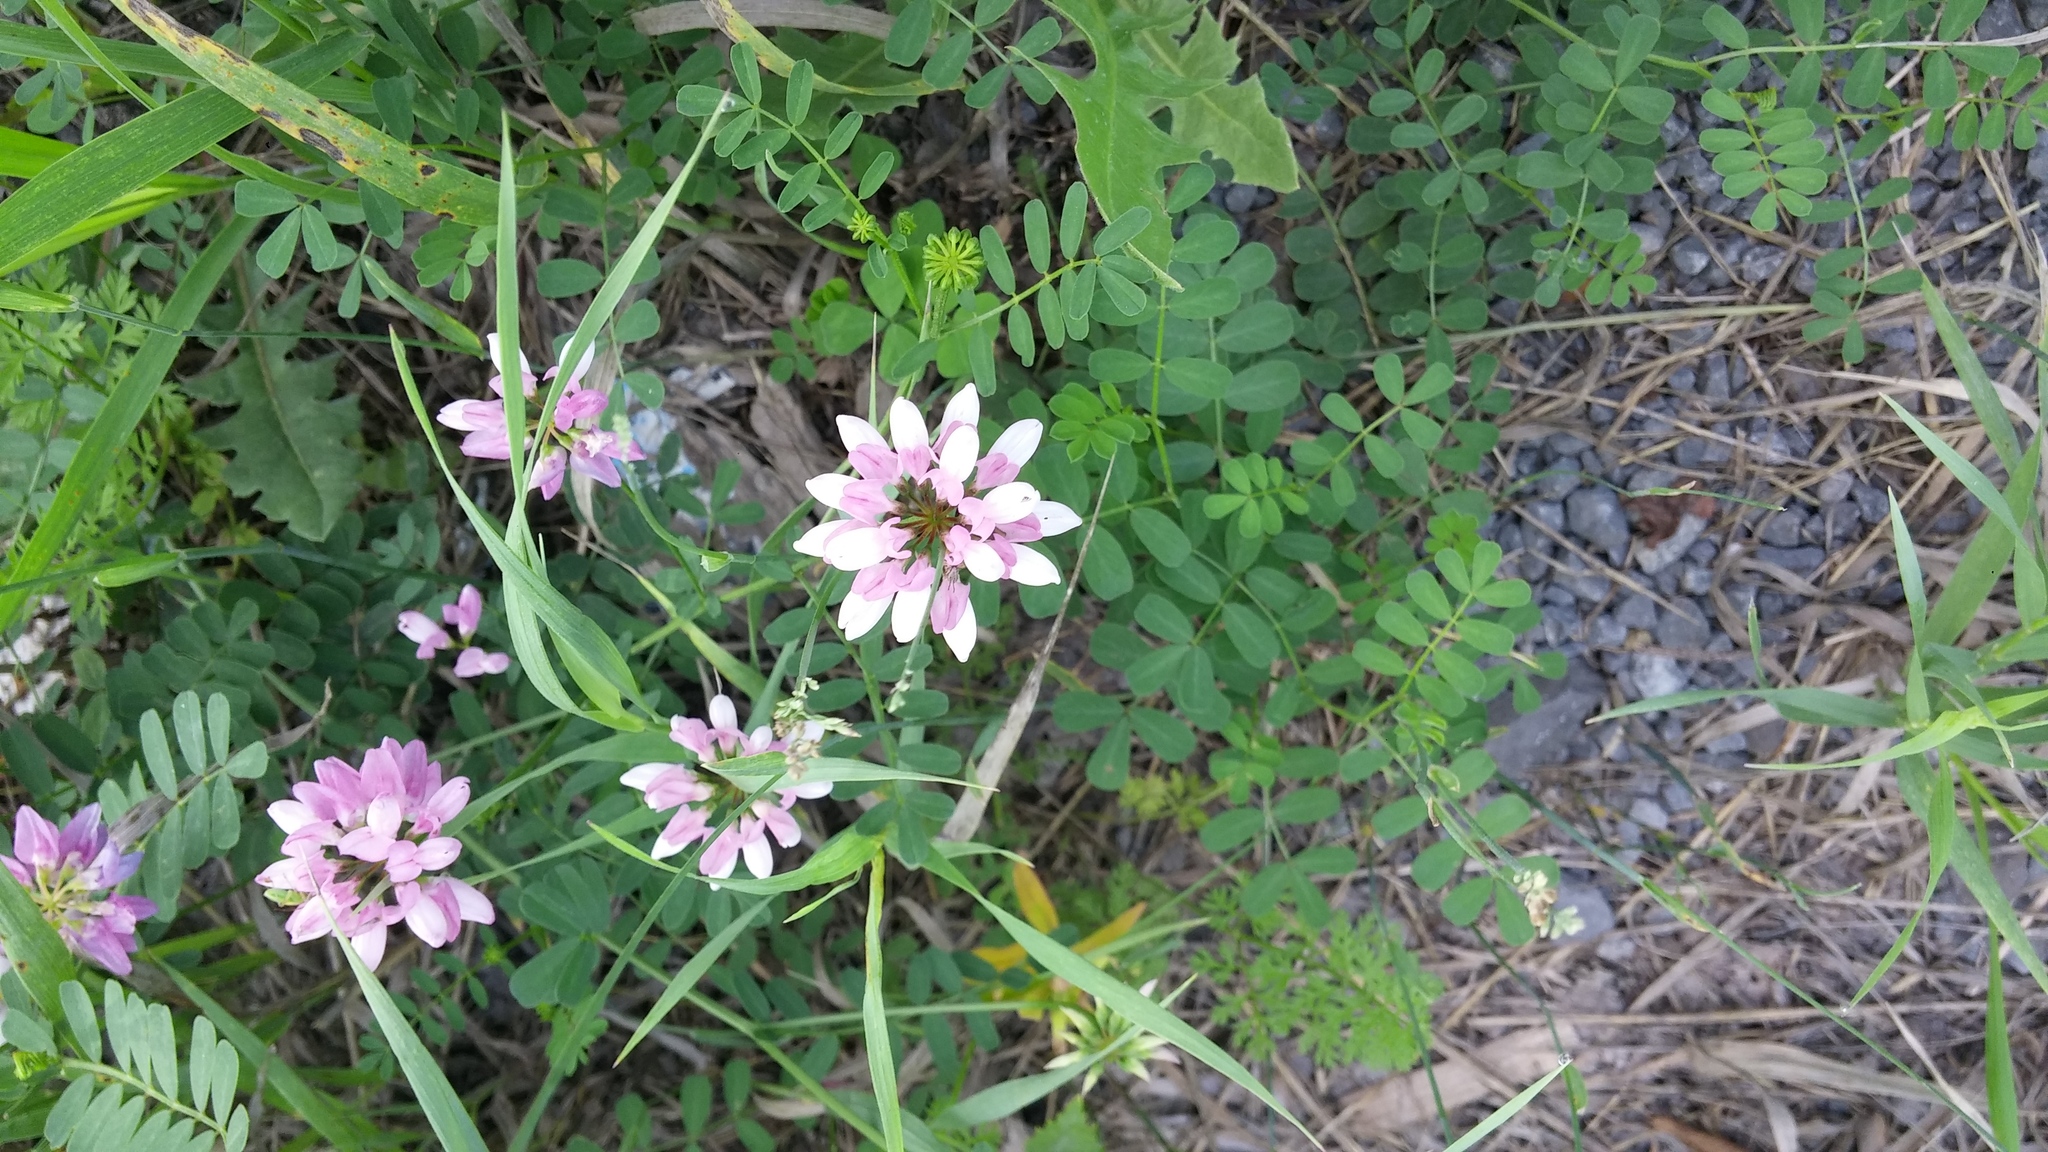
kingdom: Plantae
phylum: Tracheophyta
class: Magnoliopsida
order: Fabales
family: Fabaceae
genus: Coronilla
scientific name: Coronilla varia
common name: Crownvetch
